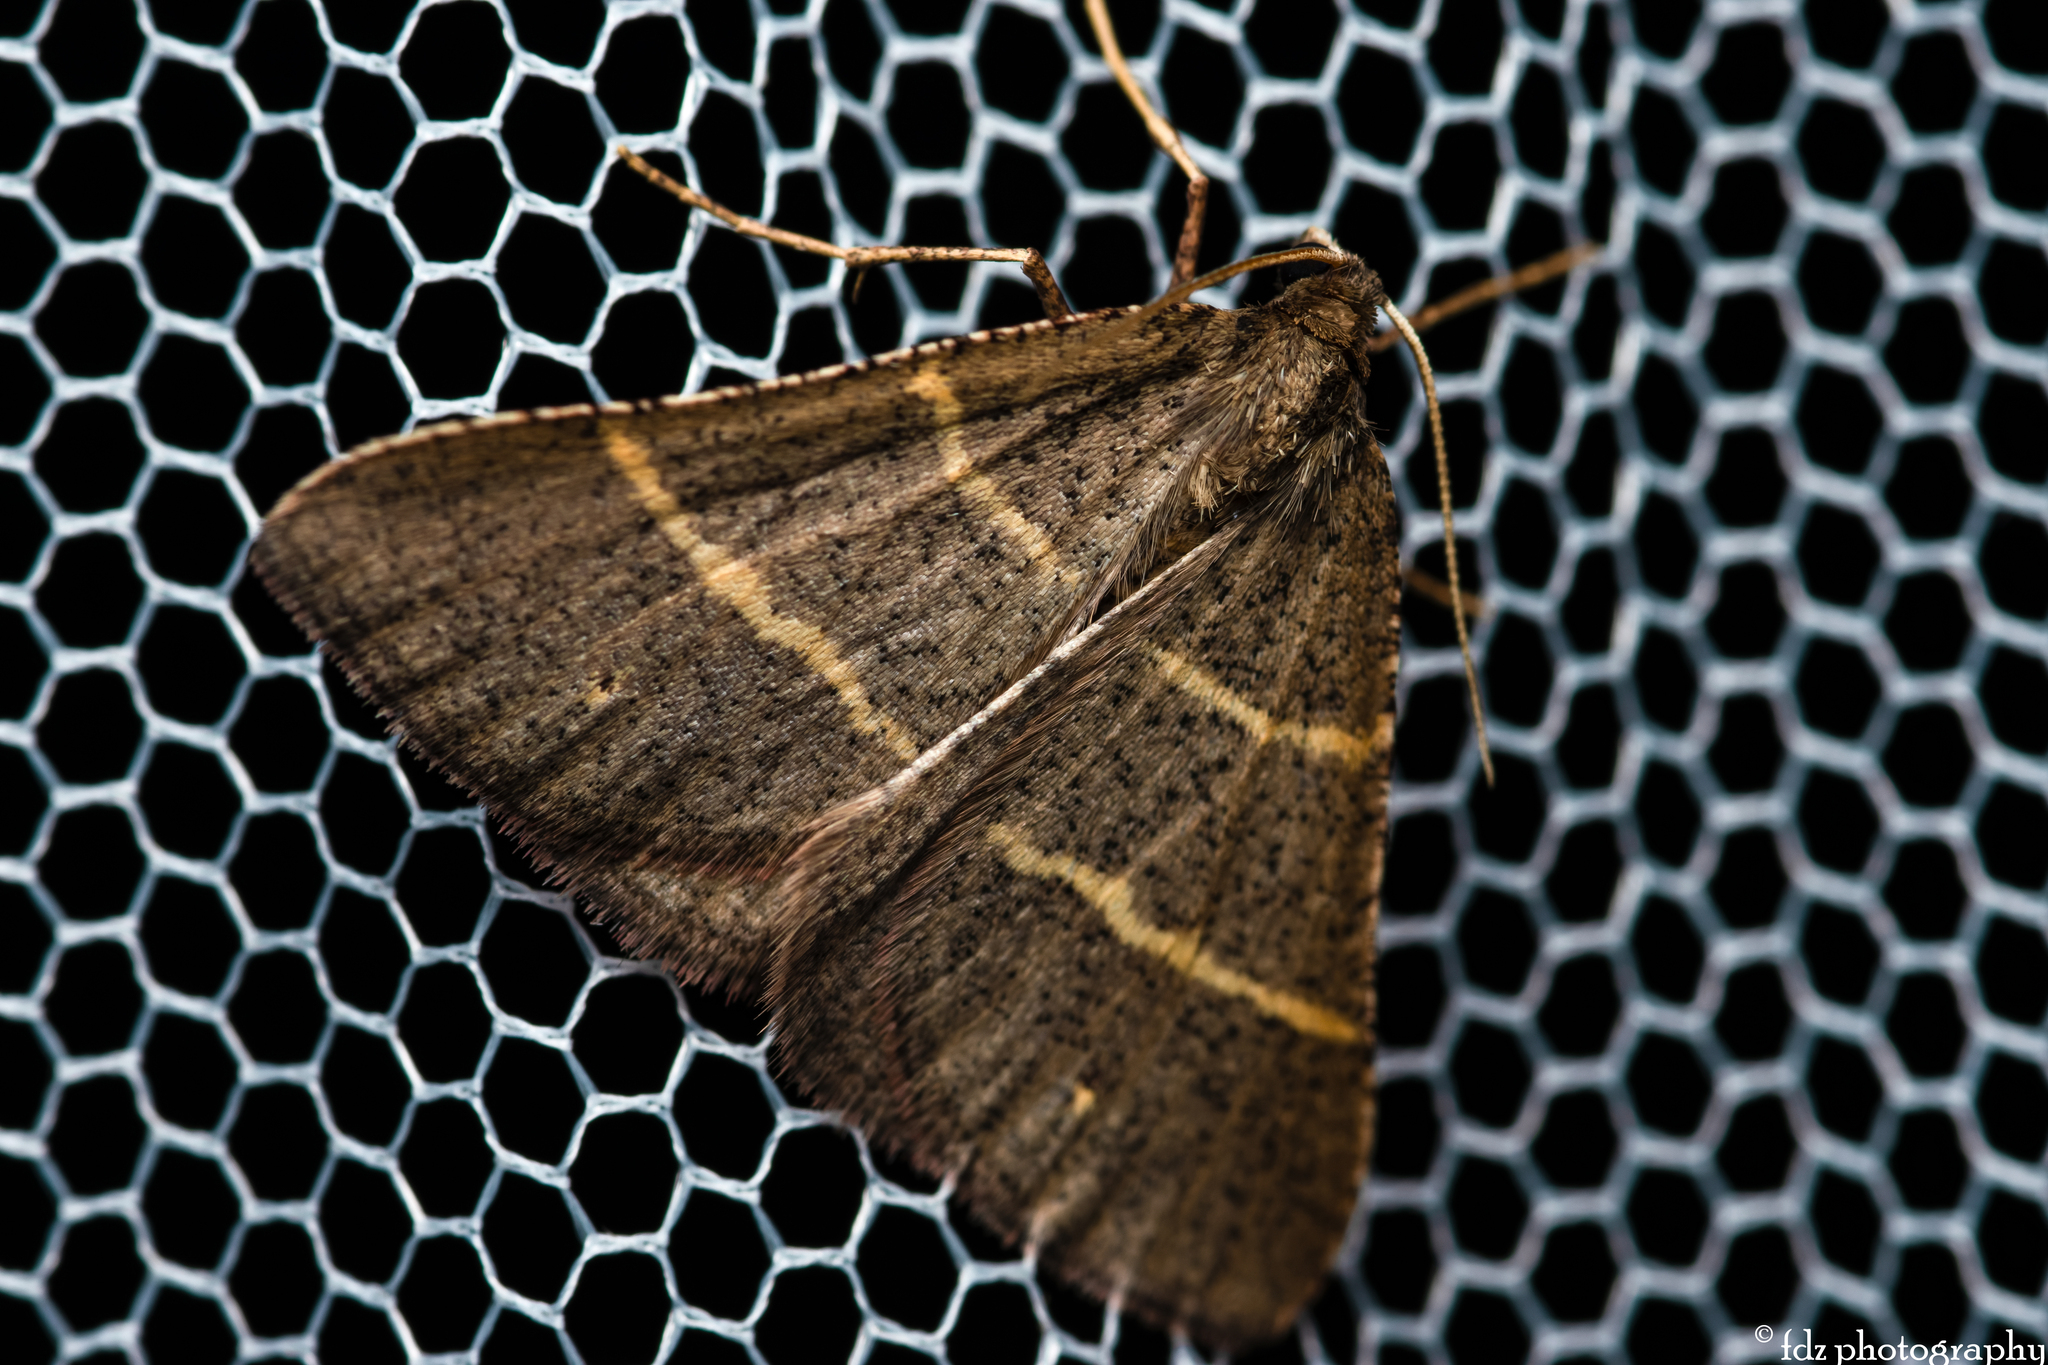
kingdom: Animalia
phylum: Arthropoda
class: Insecta
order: Lepidoptera
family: Pterophoridae
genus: Pterophorus
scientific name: Pterophorus Petrophora narbonea
